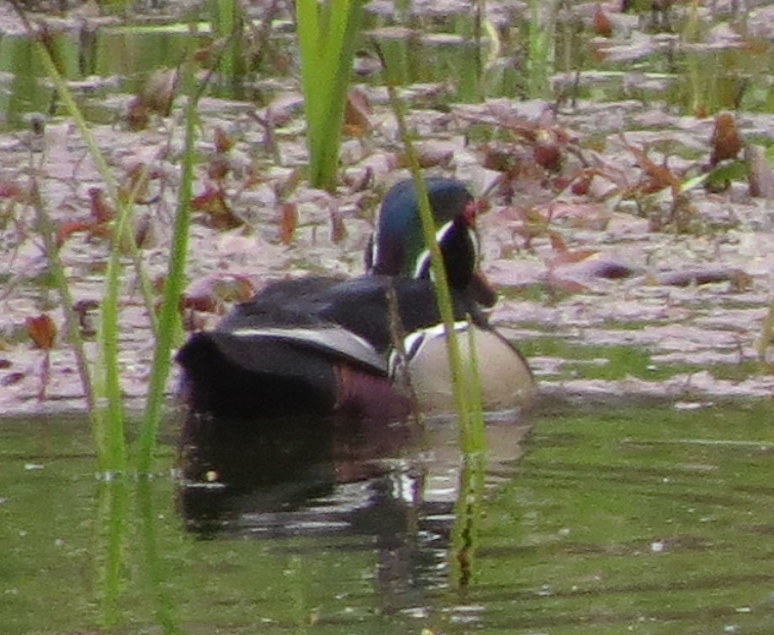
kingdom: Animalia
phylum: Chordata
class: Aves
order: Anseriformes
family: Anatidae
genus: Aix
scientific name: Aix sponsa
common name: Wood duck
